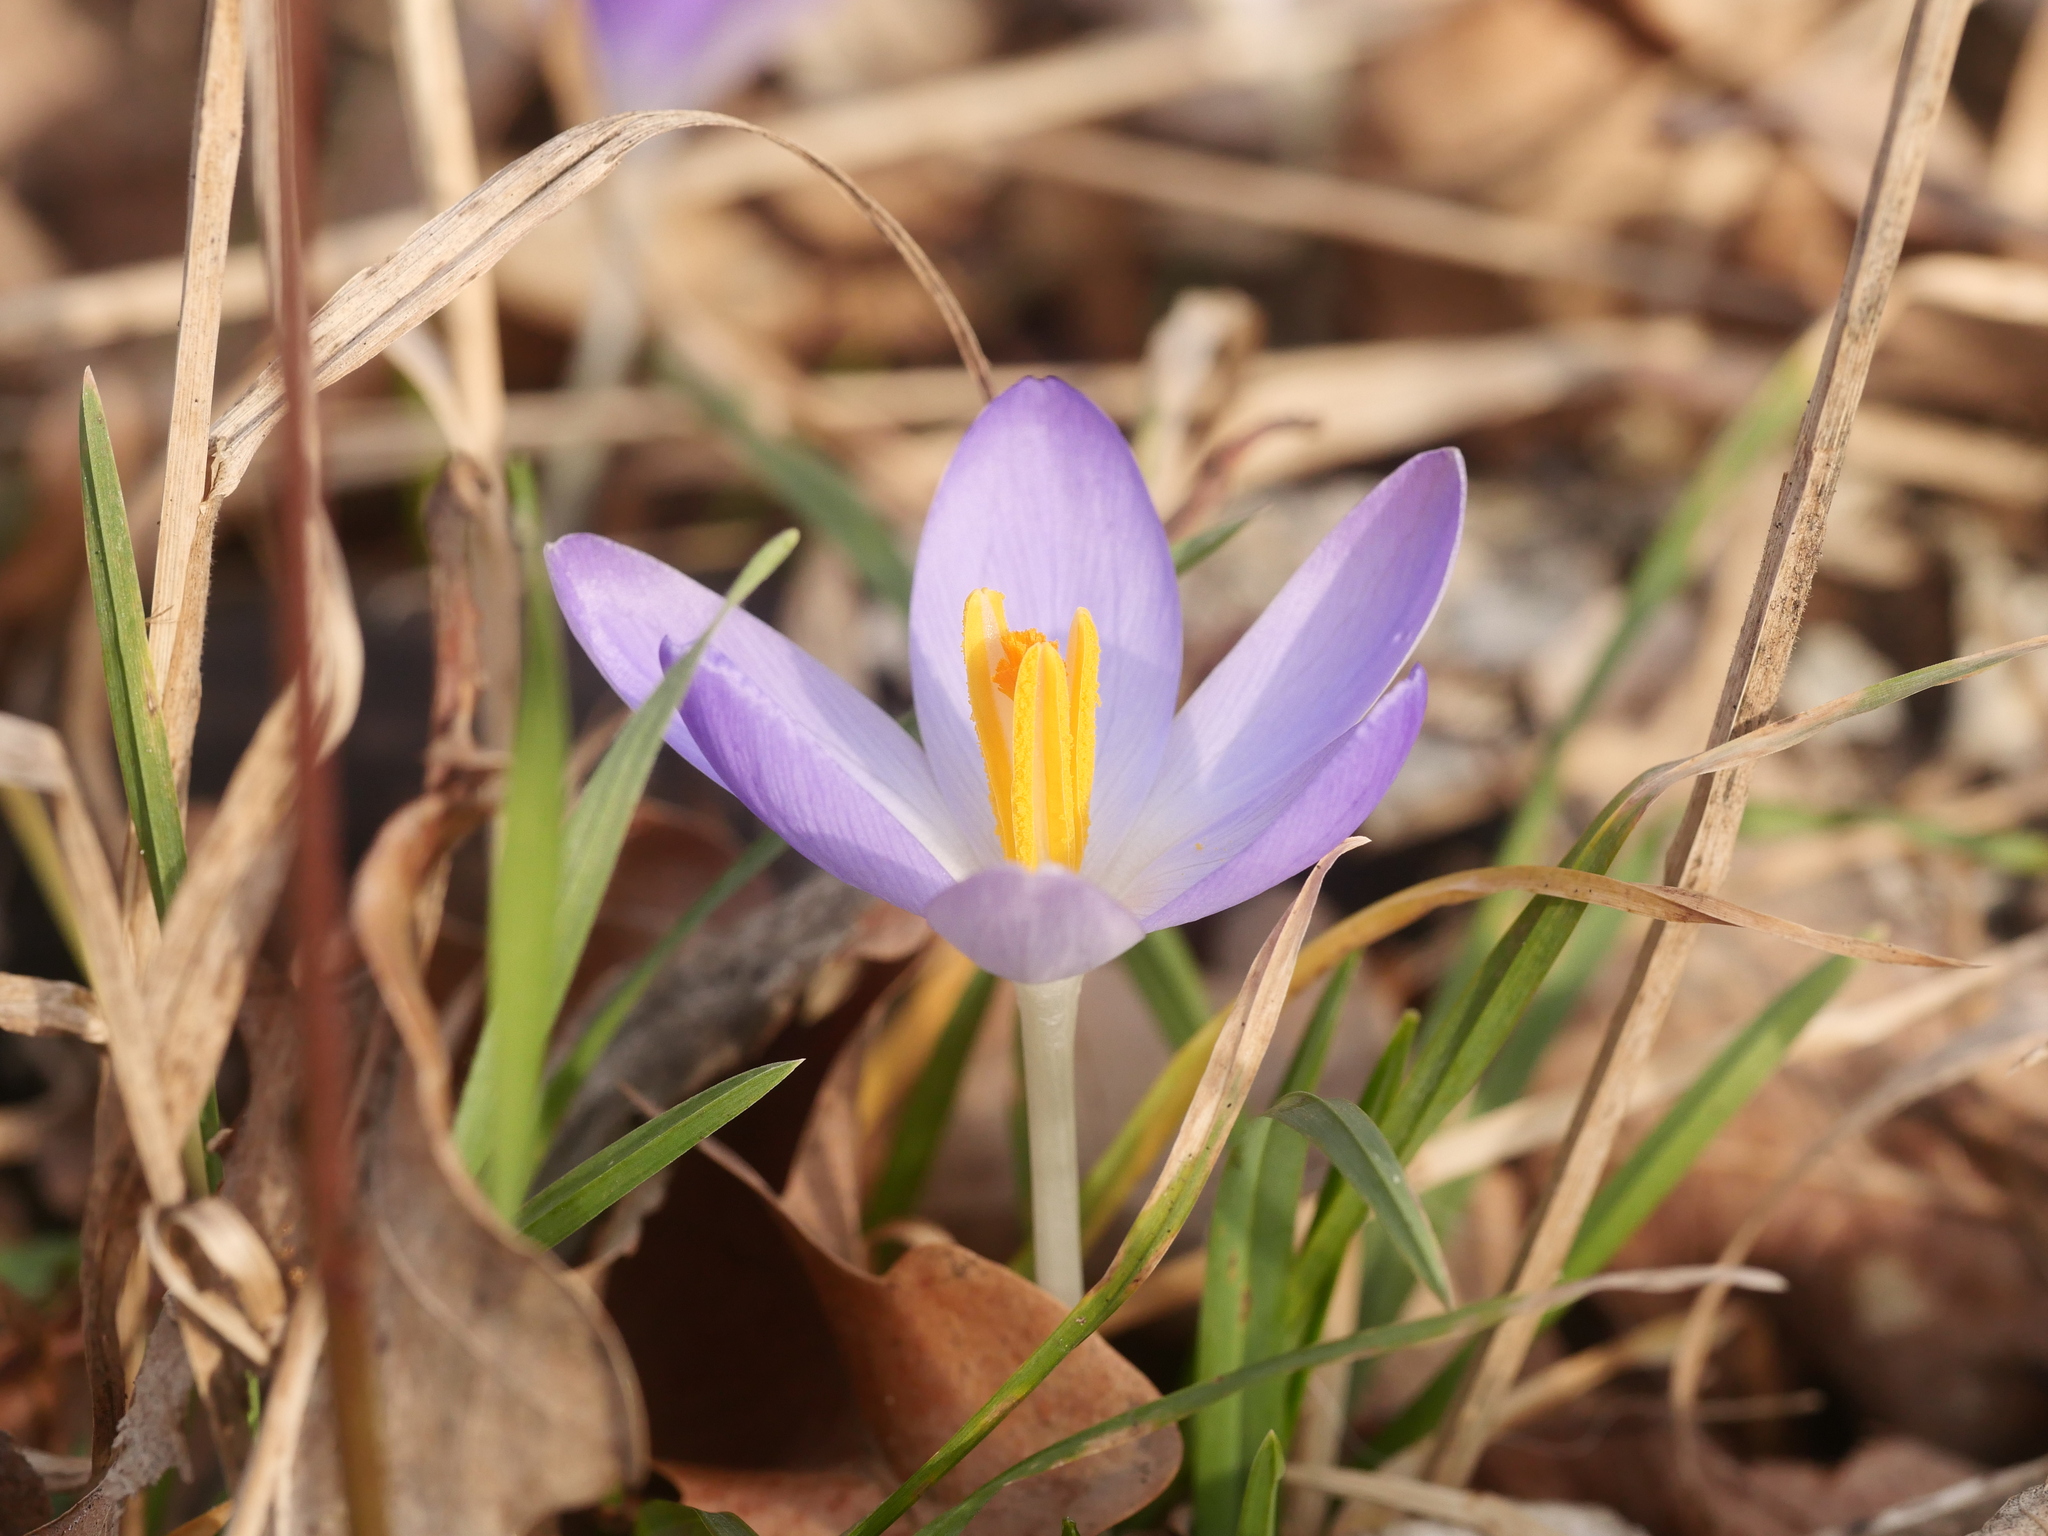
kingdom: Plantae
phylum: Tracheophyta
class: Liliopsida
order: Asparagales
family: Iridaceae
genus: Crocus
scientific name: Crocus tommasinianus
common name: Early crocus
